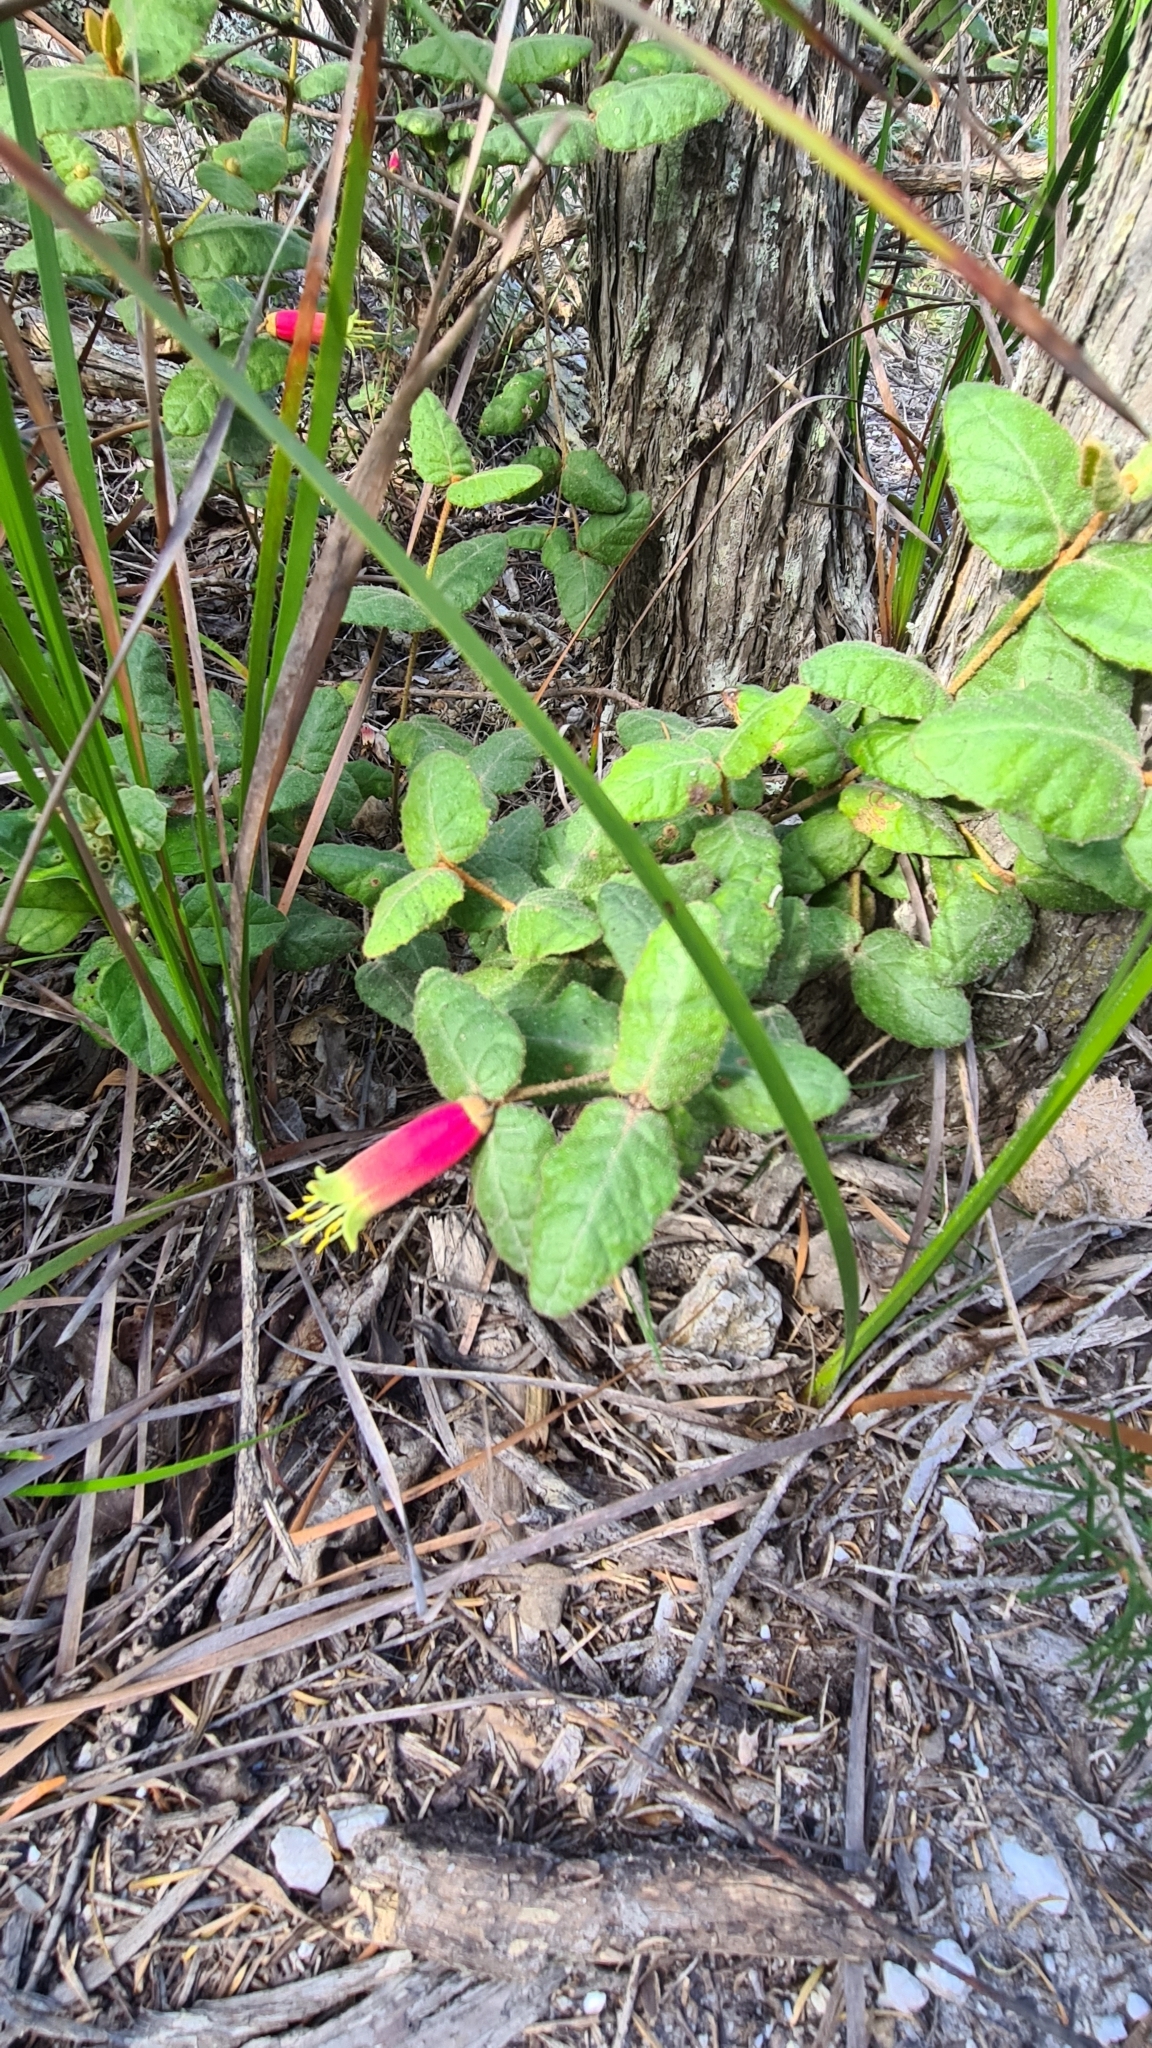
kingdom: Plantae
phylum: Tracheophyta
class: Magnoliopsida
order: Sapindales
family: Rutaceae
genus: Correa
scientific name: Correa reflexa
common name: Common correa
